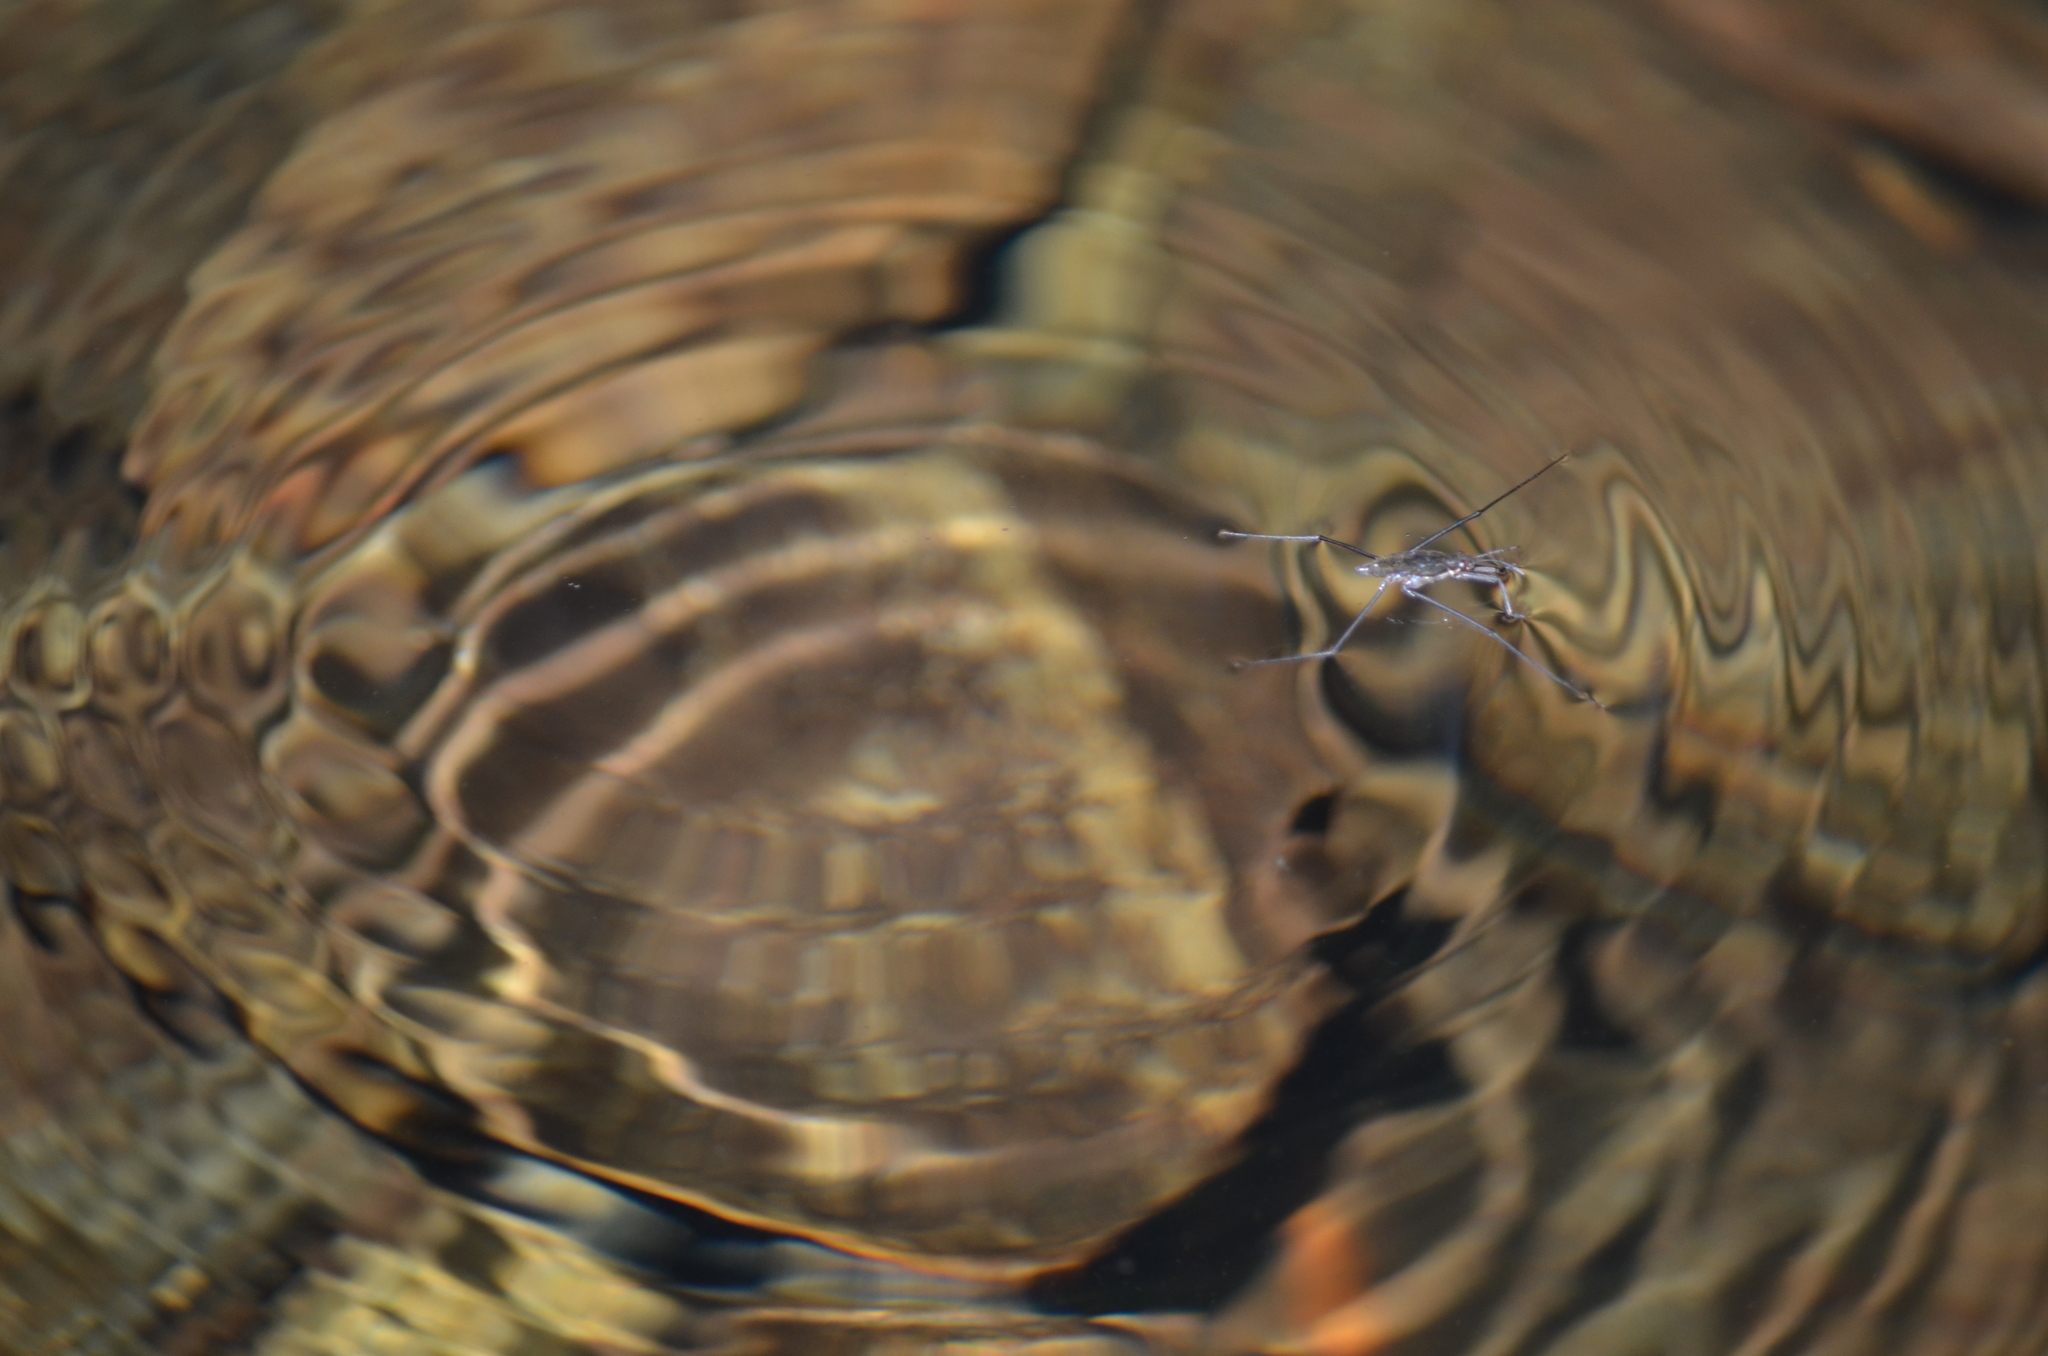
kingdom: Animalia
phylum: Arthropoda
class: Insecta
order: Hemiptera
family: Gerridae
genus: Aquarius
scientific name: Aquarius remigis
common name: Common water strider
